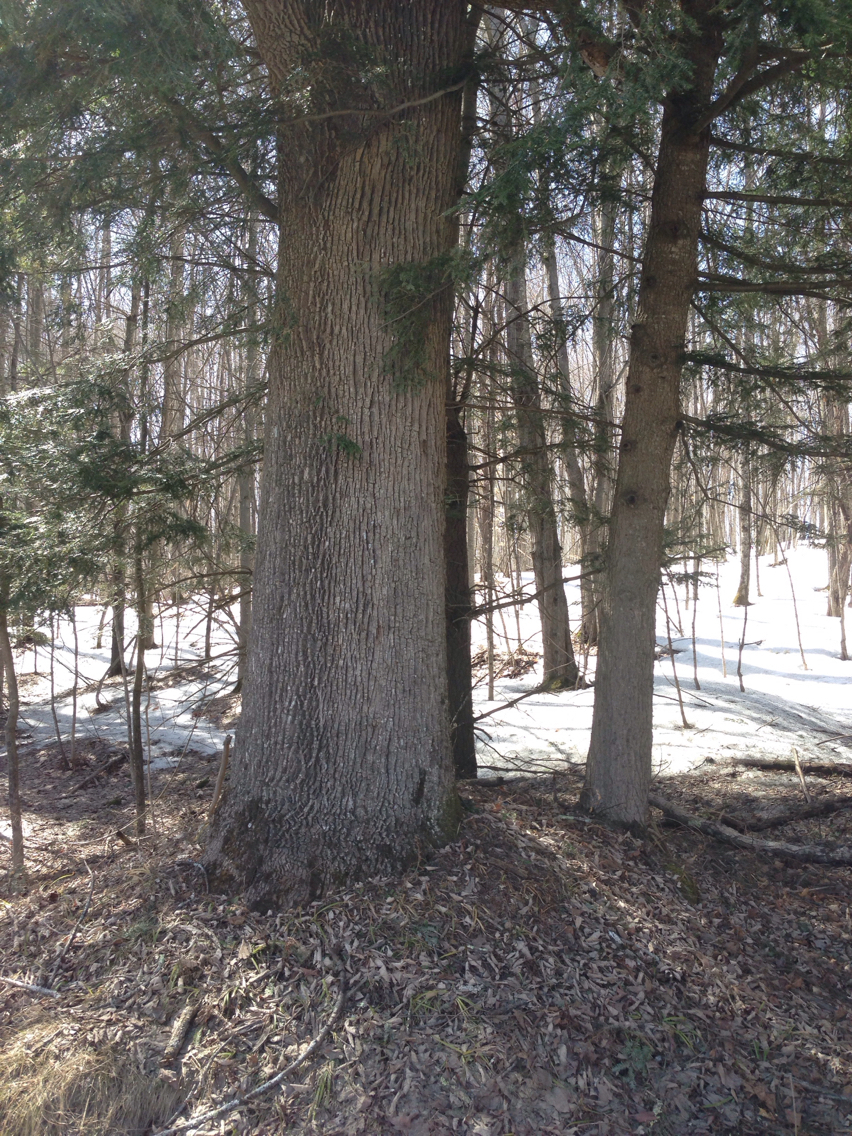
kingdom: Plantae
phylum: Tracheophyta
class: Magnoliopsida
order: Lamiales
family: Oleaceae
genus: Fraxinus
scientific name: Fraxinus americana
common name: White ash
